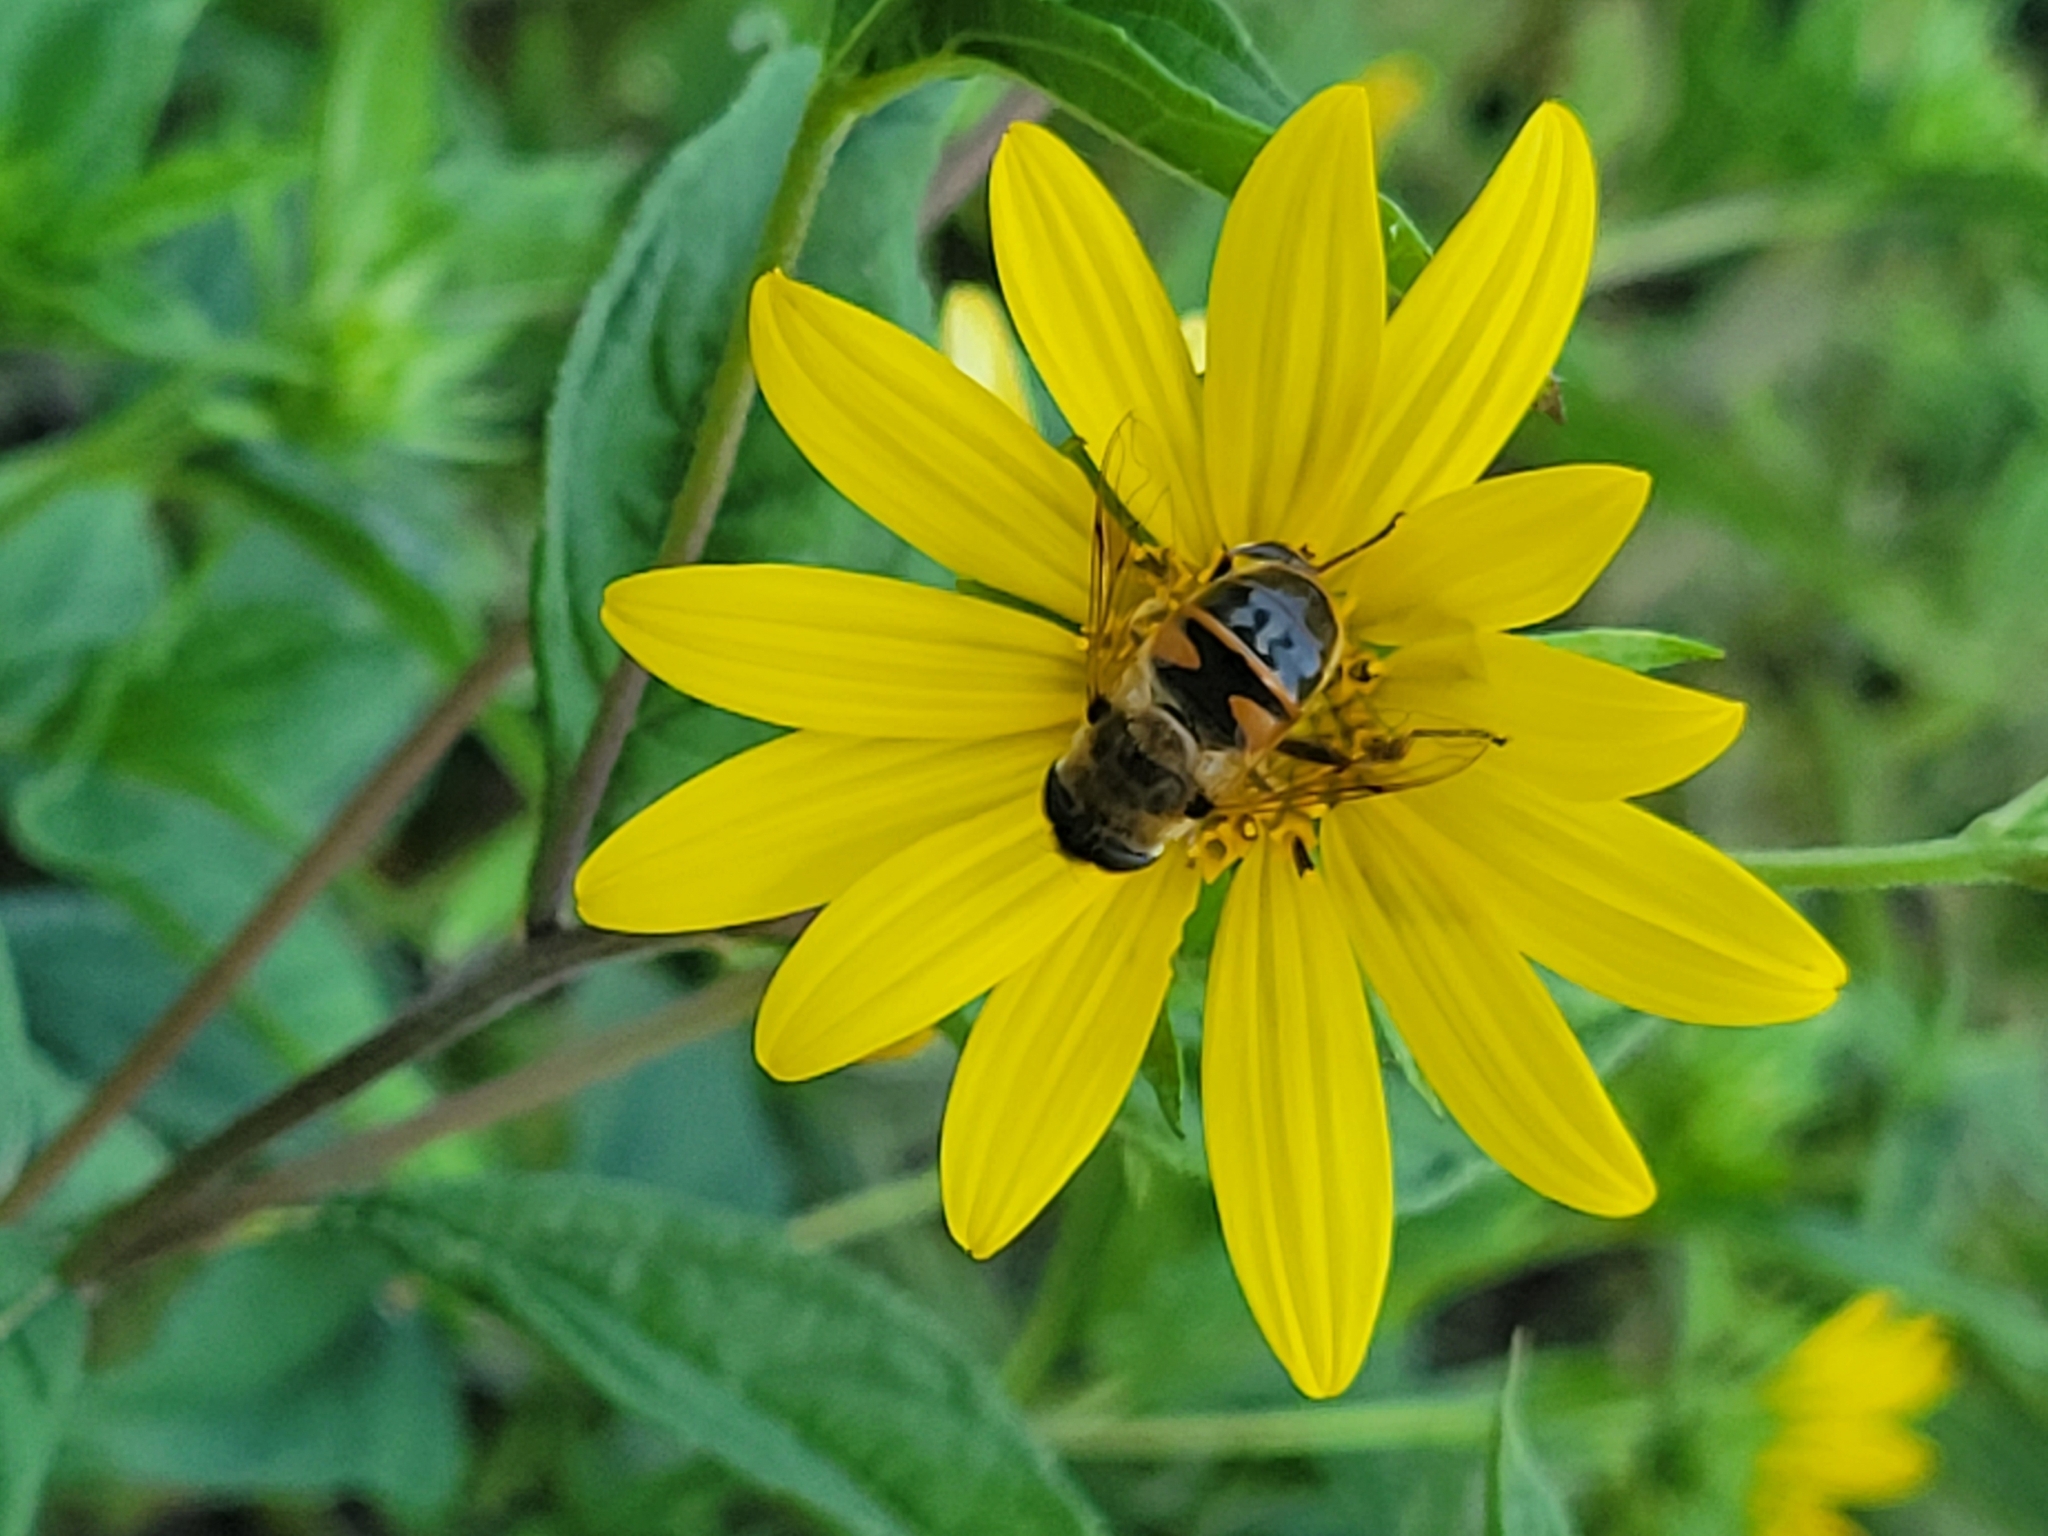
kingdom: Animalia
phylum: Arthropoda
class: Insecta
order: Diptera
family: Syrphidae
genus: Eristalis
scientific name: Eristalis tenax
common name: Drone fly
